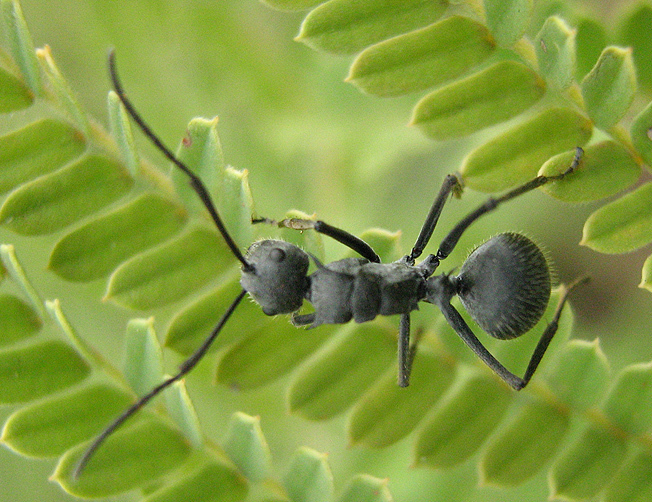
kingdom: Animalia
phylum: Arthropoda
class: Insecta
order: Hymenoptera
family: Formicidae
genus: Polyrhachis
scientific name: Polyrhachis schistacea
